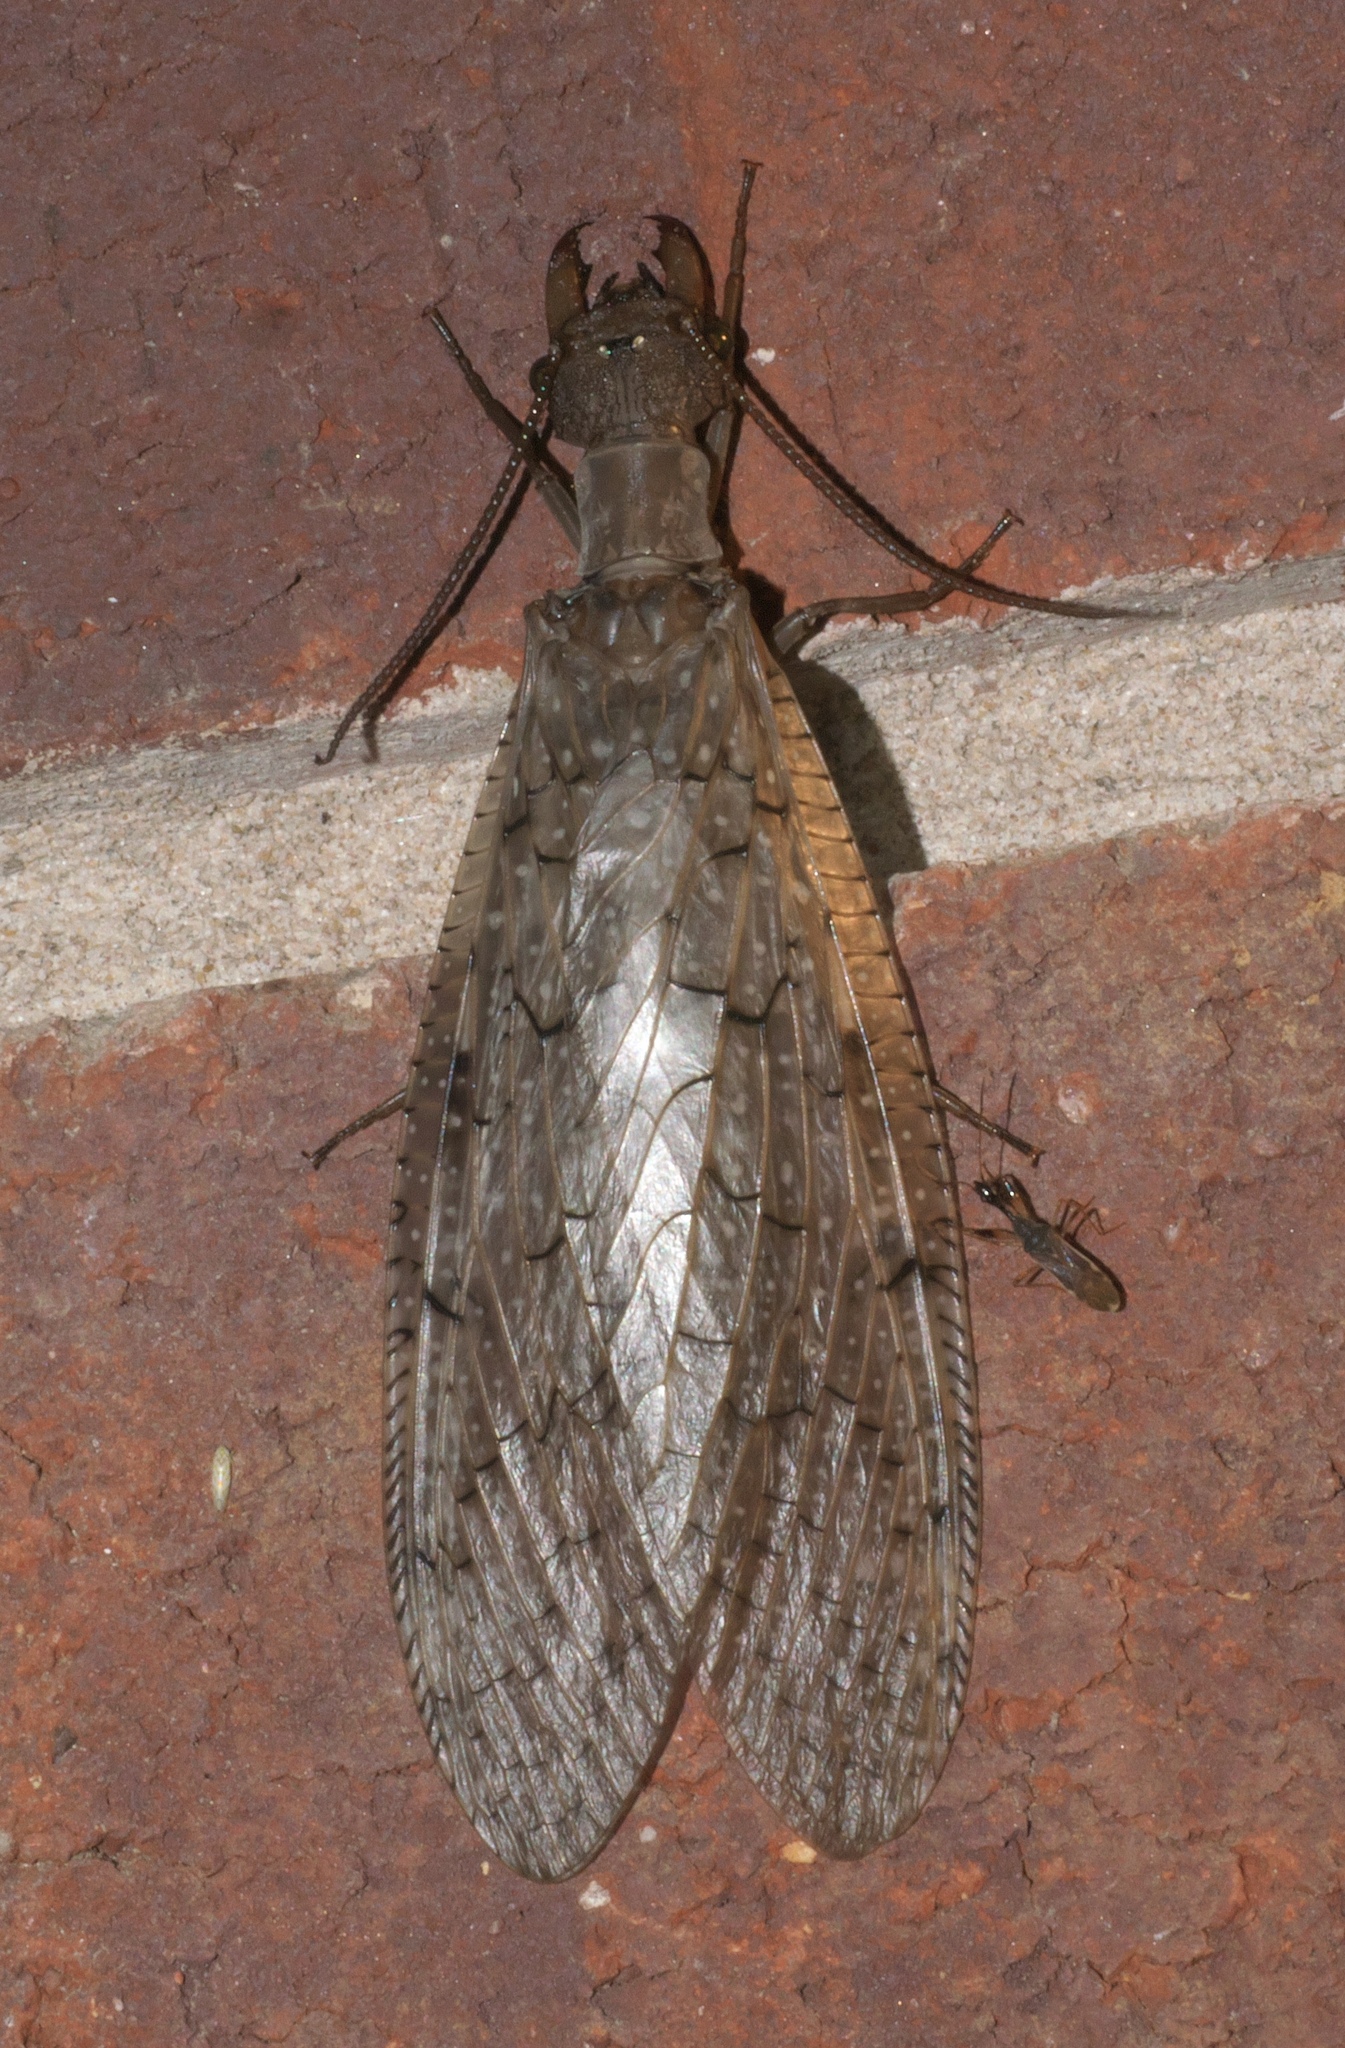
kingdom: Animalia
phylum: Arthropoda
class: Insecta
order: Megaloptera
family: Corydalidae
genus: Corydalus
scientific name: Corydalus cornutus
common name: Dobsonfly
